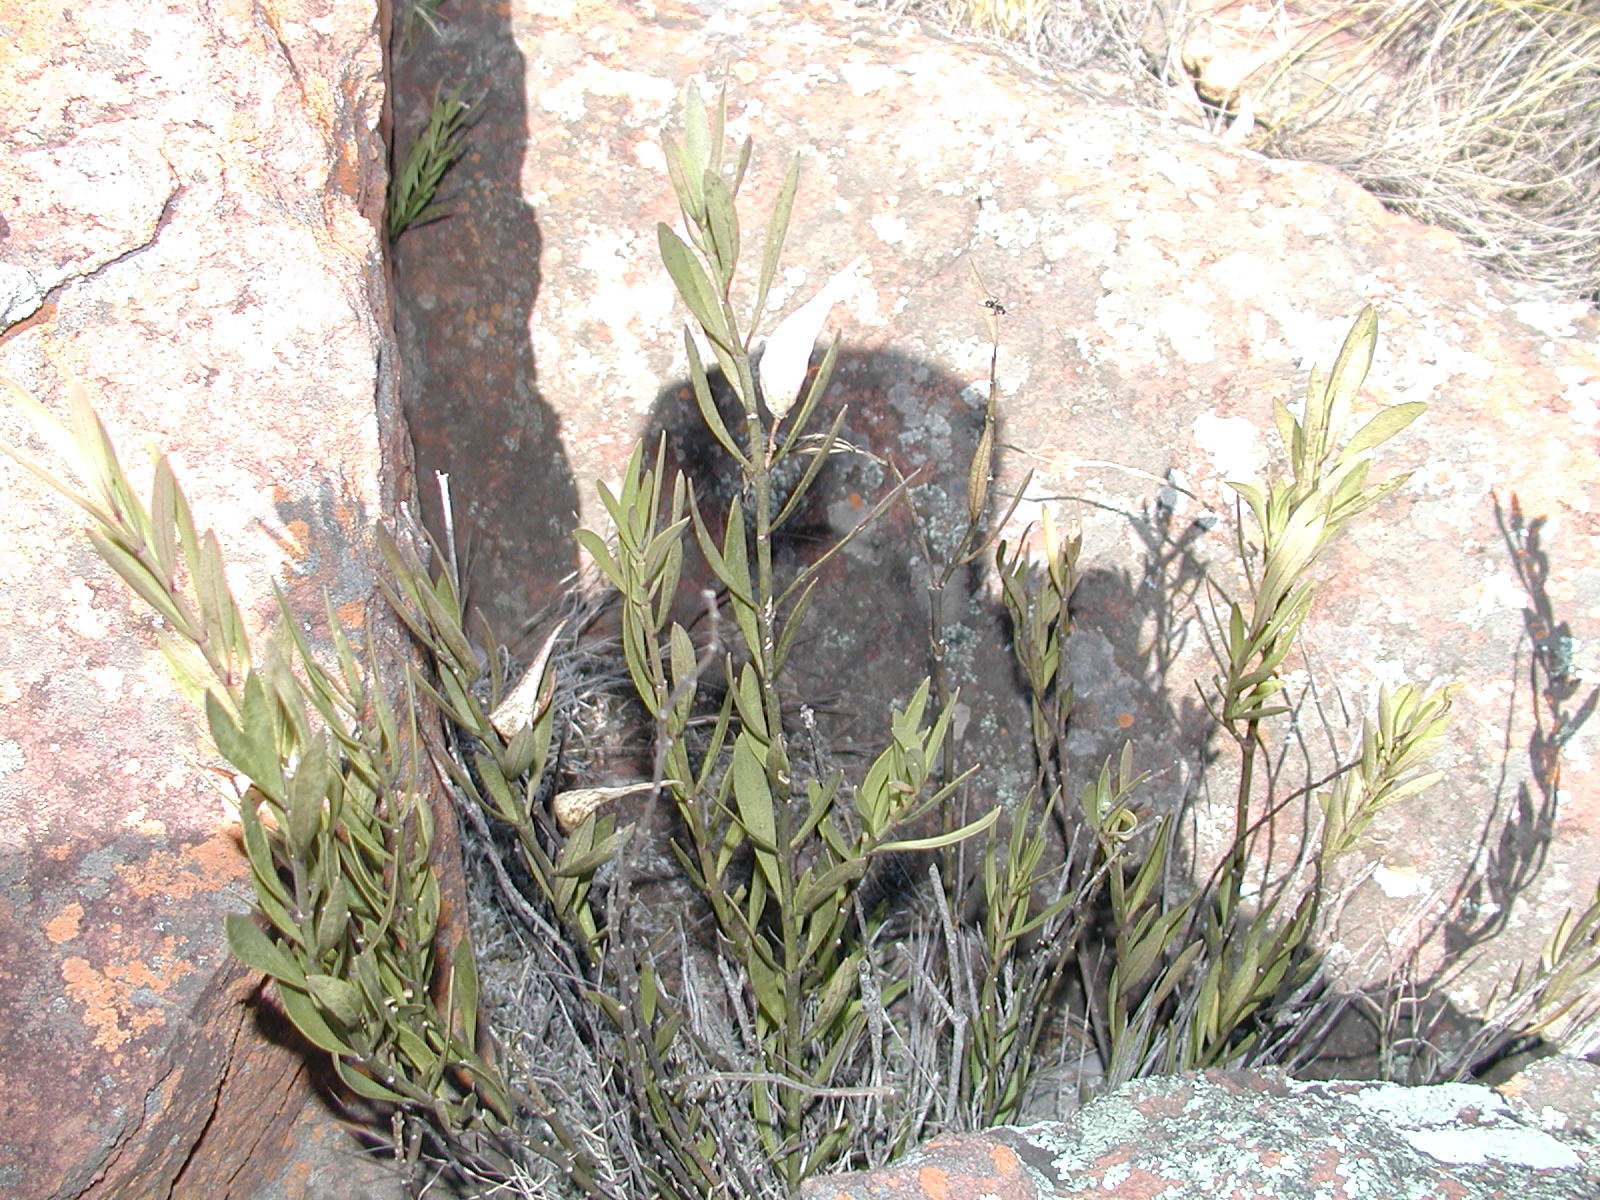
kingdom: Plantae
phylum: Tracheophyta
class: Magnoliopsida
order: Gentianales
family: Apocynaceae
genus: Vincetoxicum
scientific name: Vincetoxicum coddii
